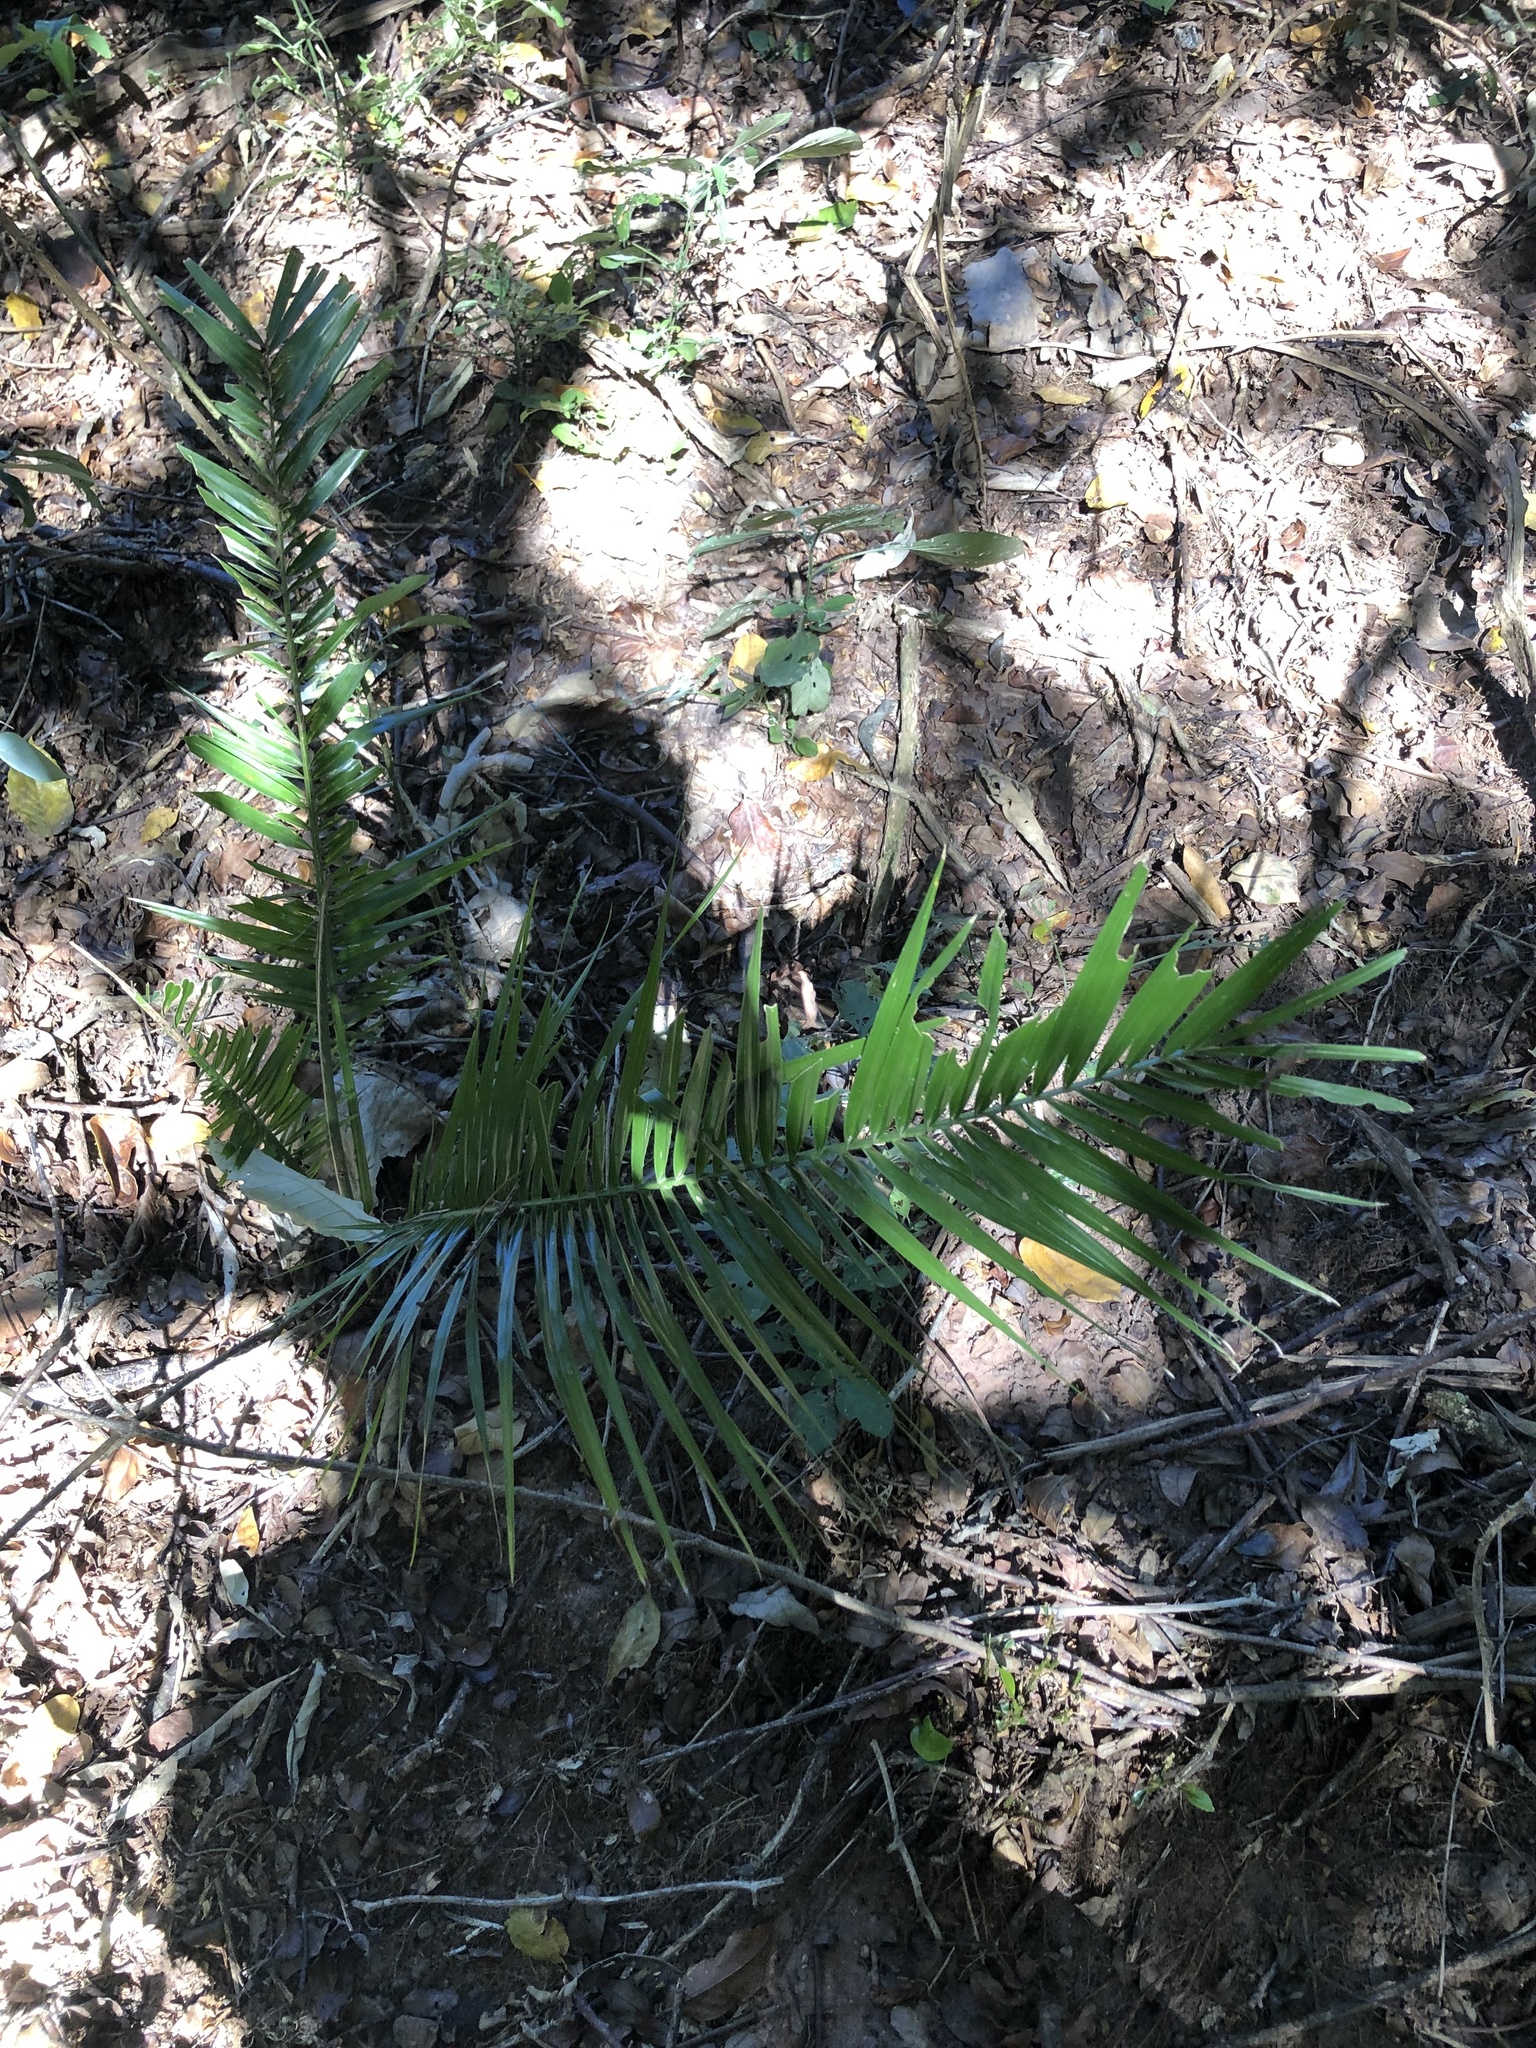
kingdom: Plantae
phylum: Tracheophyta
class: Liliopsida
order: Arecales
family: Arecaceae
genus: Phoenix
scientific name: Phoenix reclinata
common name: Senegal date palm
